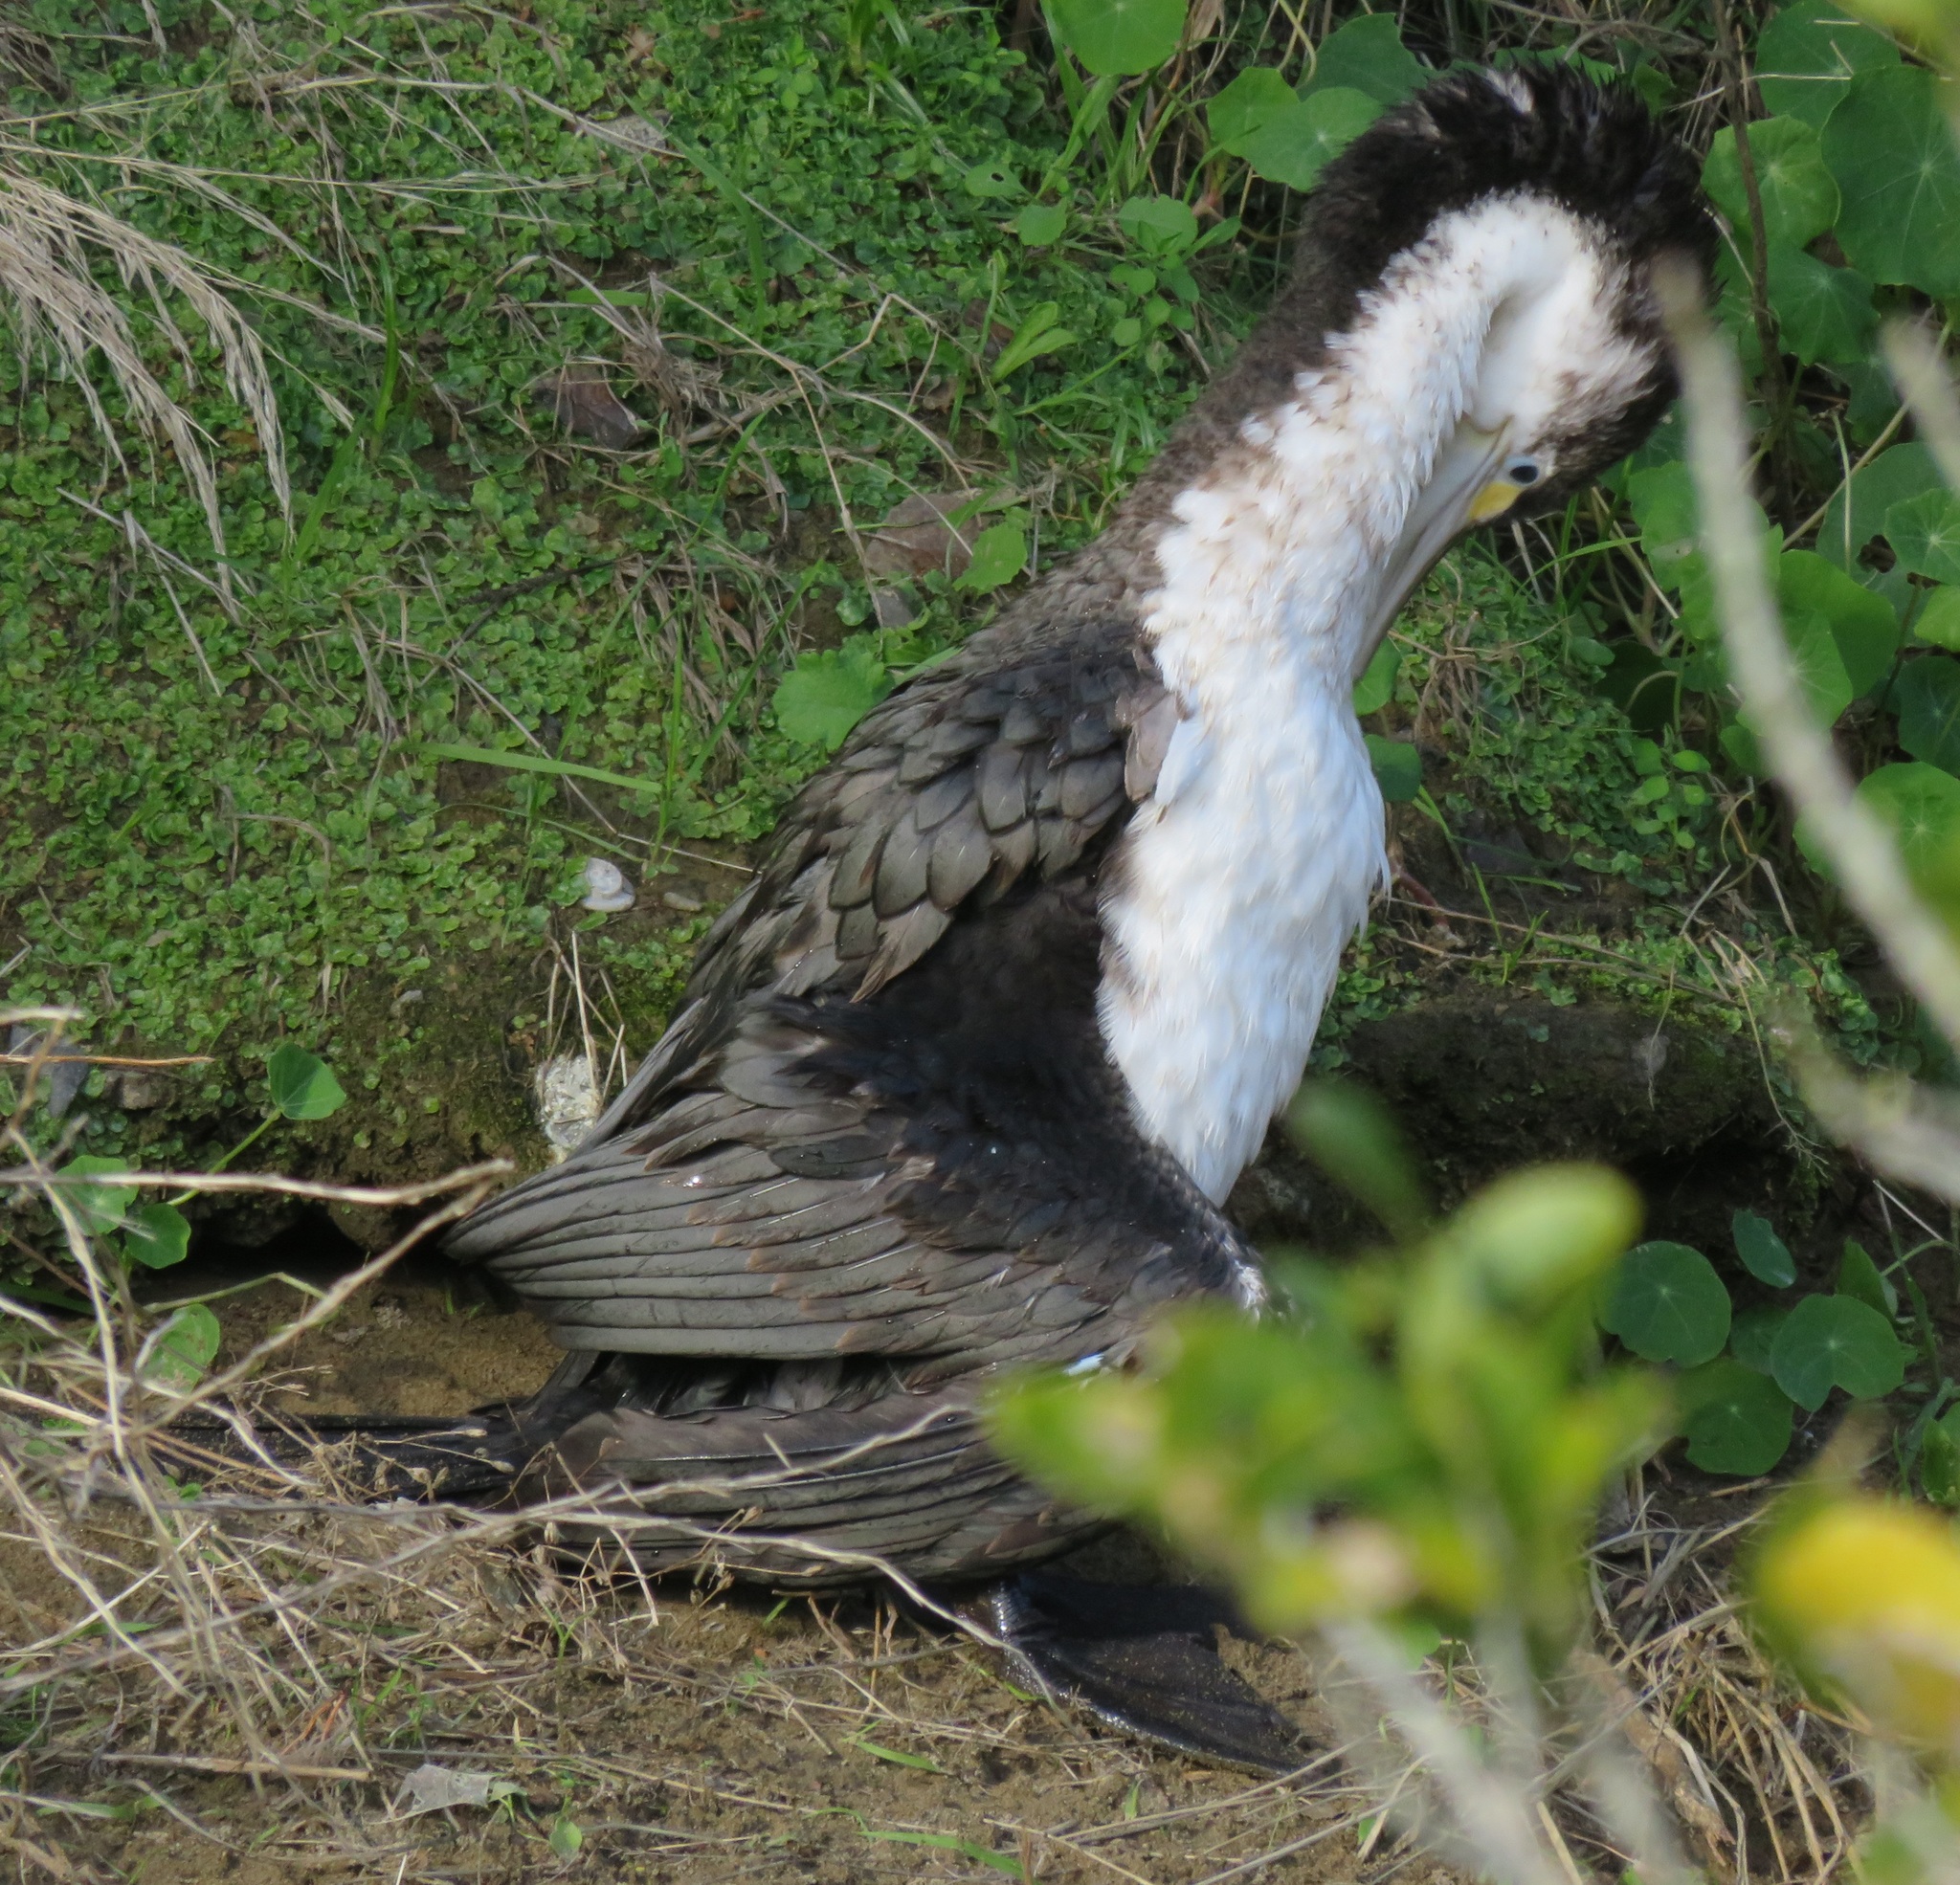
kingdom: Animalia
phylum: Chordata
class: Aves
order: Suliformes
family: Phalacrocoracidae
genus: Phalacrocorax
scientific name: Phalacrocorax varius
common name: Pied cormorant
